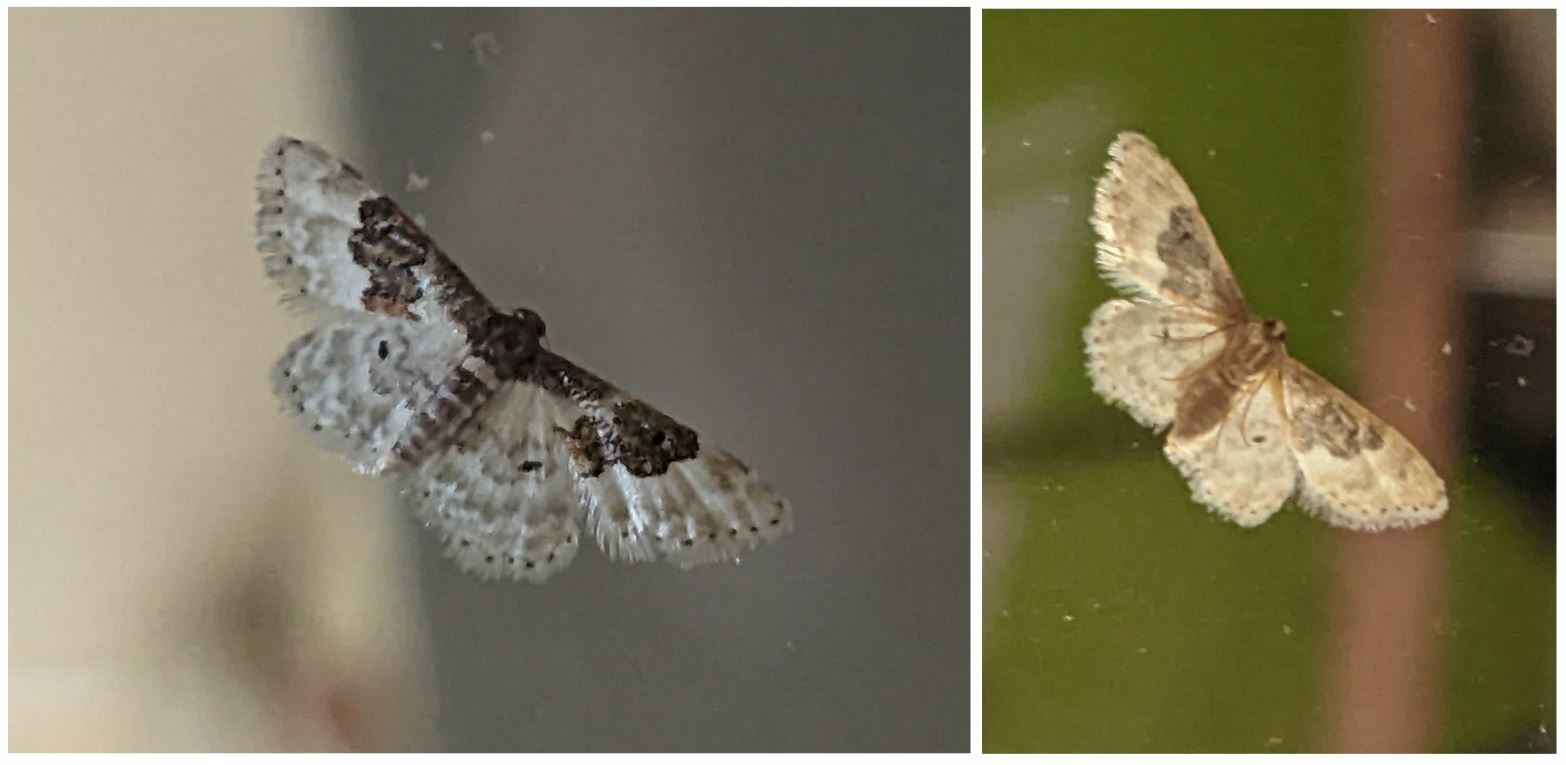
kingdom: Animalia
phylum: Arthropoda
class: Insecta
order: Lepidoptera
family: Geometridae
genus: Idaea
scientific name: Idaea rusticata
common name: Least carpet
